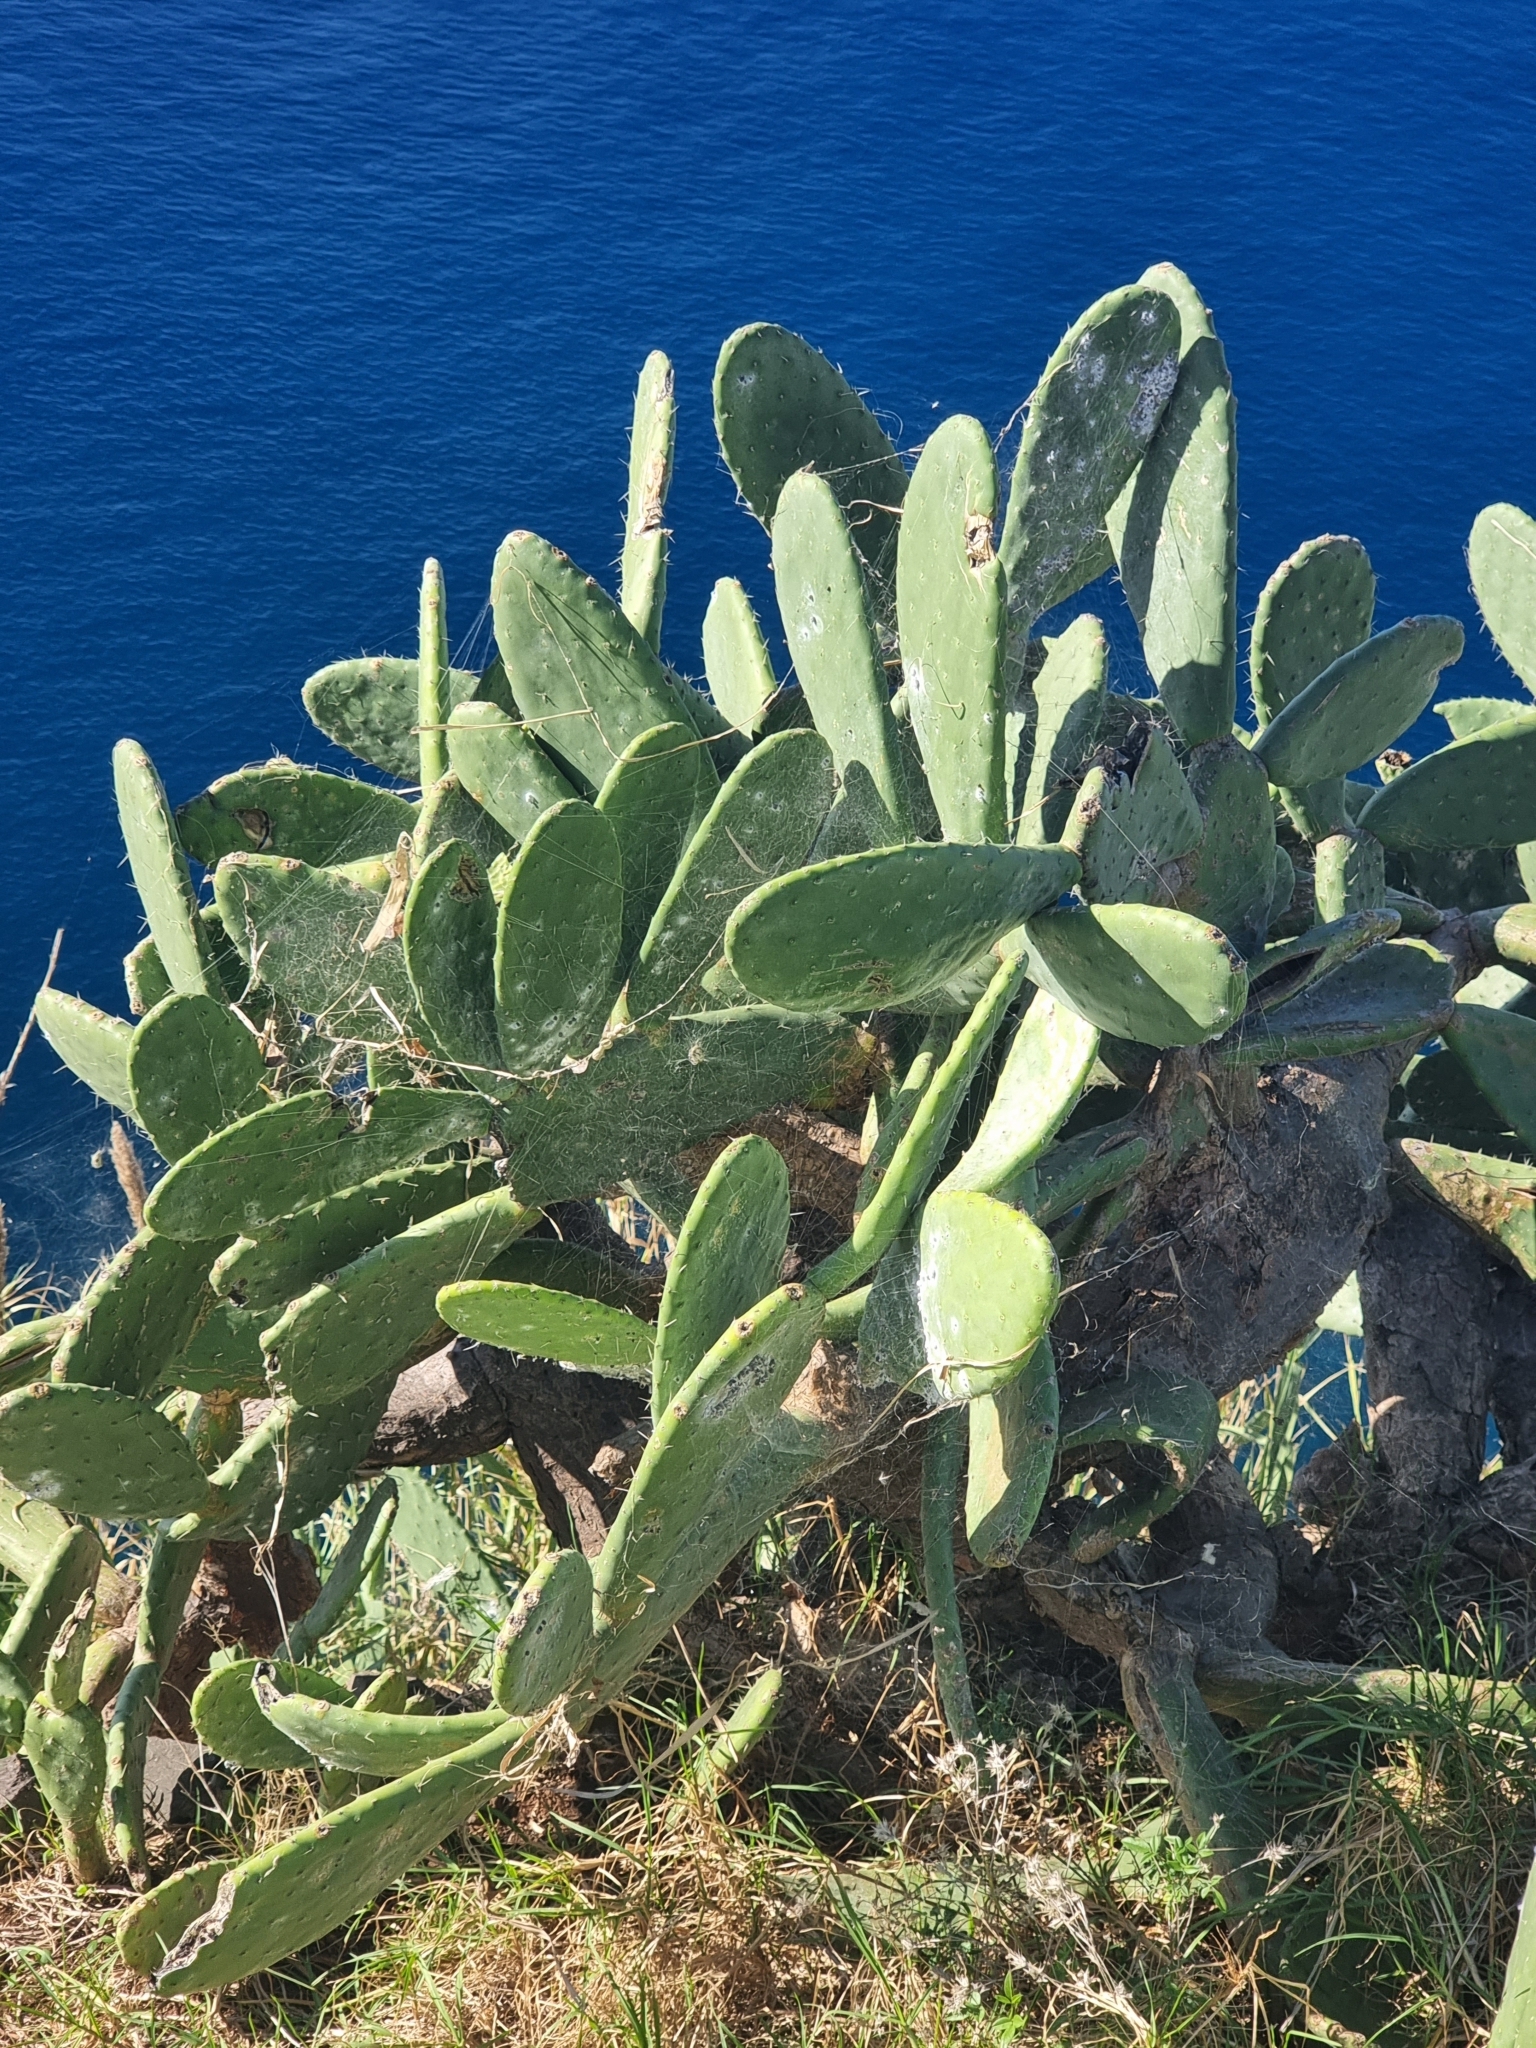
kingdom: Plantae
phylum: Tracheophyta
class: Magnoliopsida
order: Caryophyllales
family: Cactaceae
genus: Opuntia
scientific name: Opuntia ficus-indica
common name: Barbary fig
